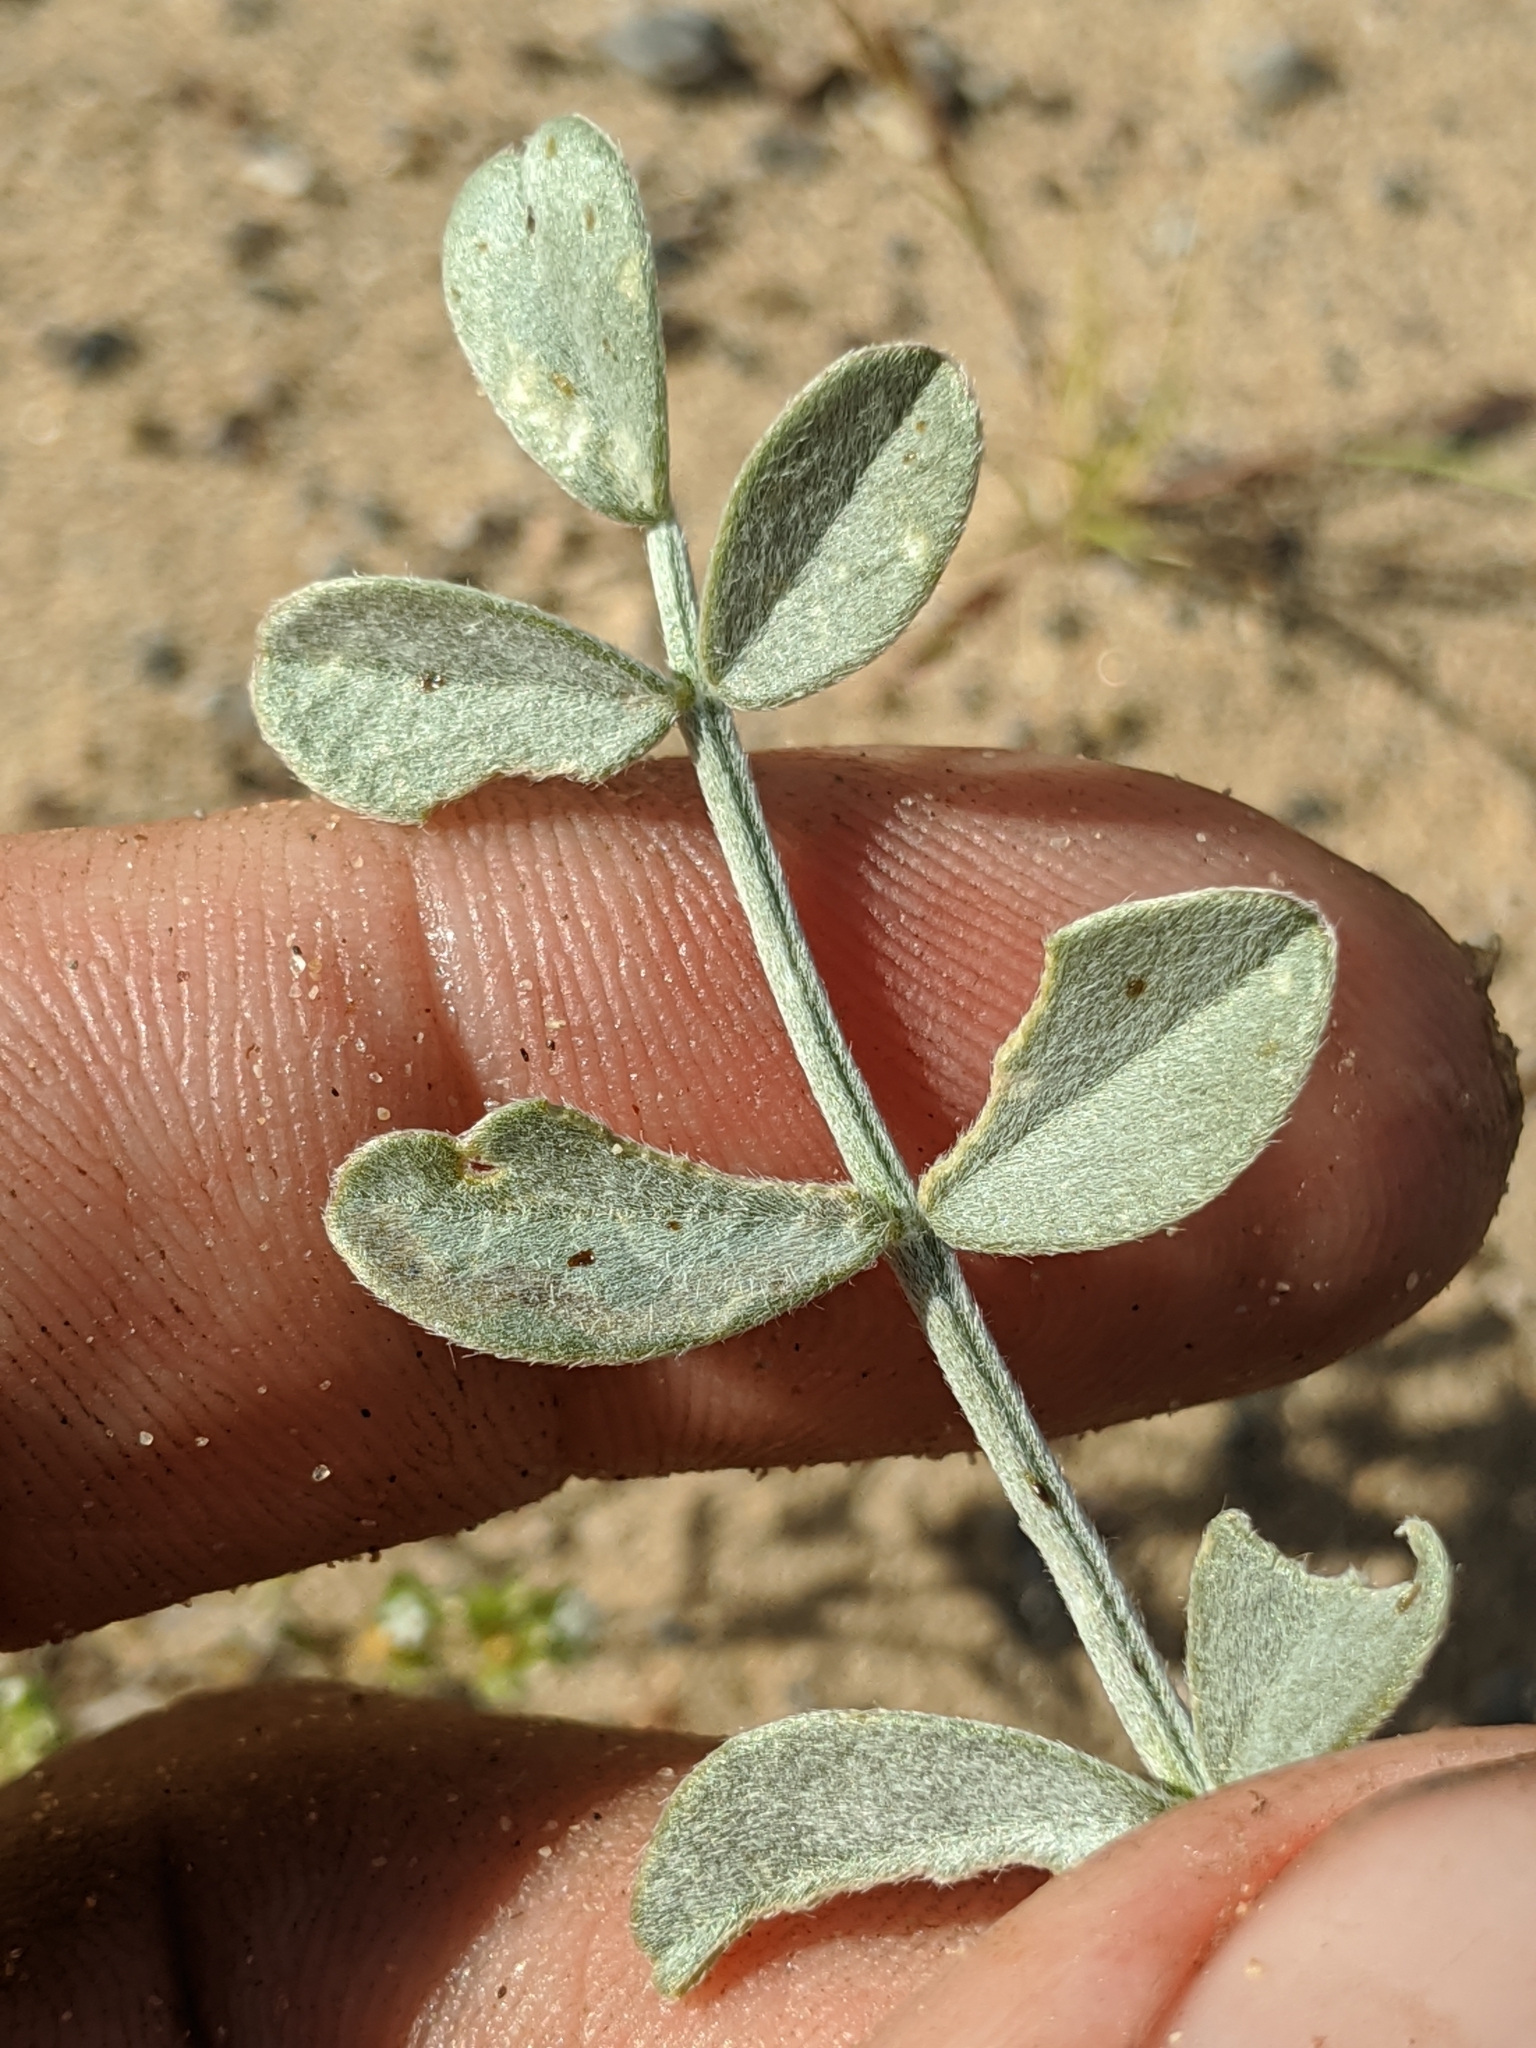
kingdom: Plantae
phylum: Tracheophyta
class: Magnoliopsida
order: Fabales
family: Fabaceae
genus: Astragalus
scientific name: Astragalus mohavensis
